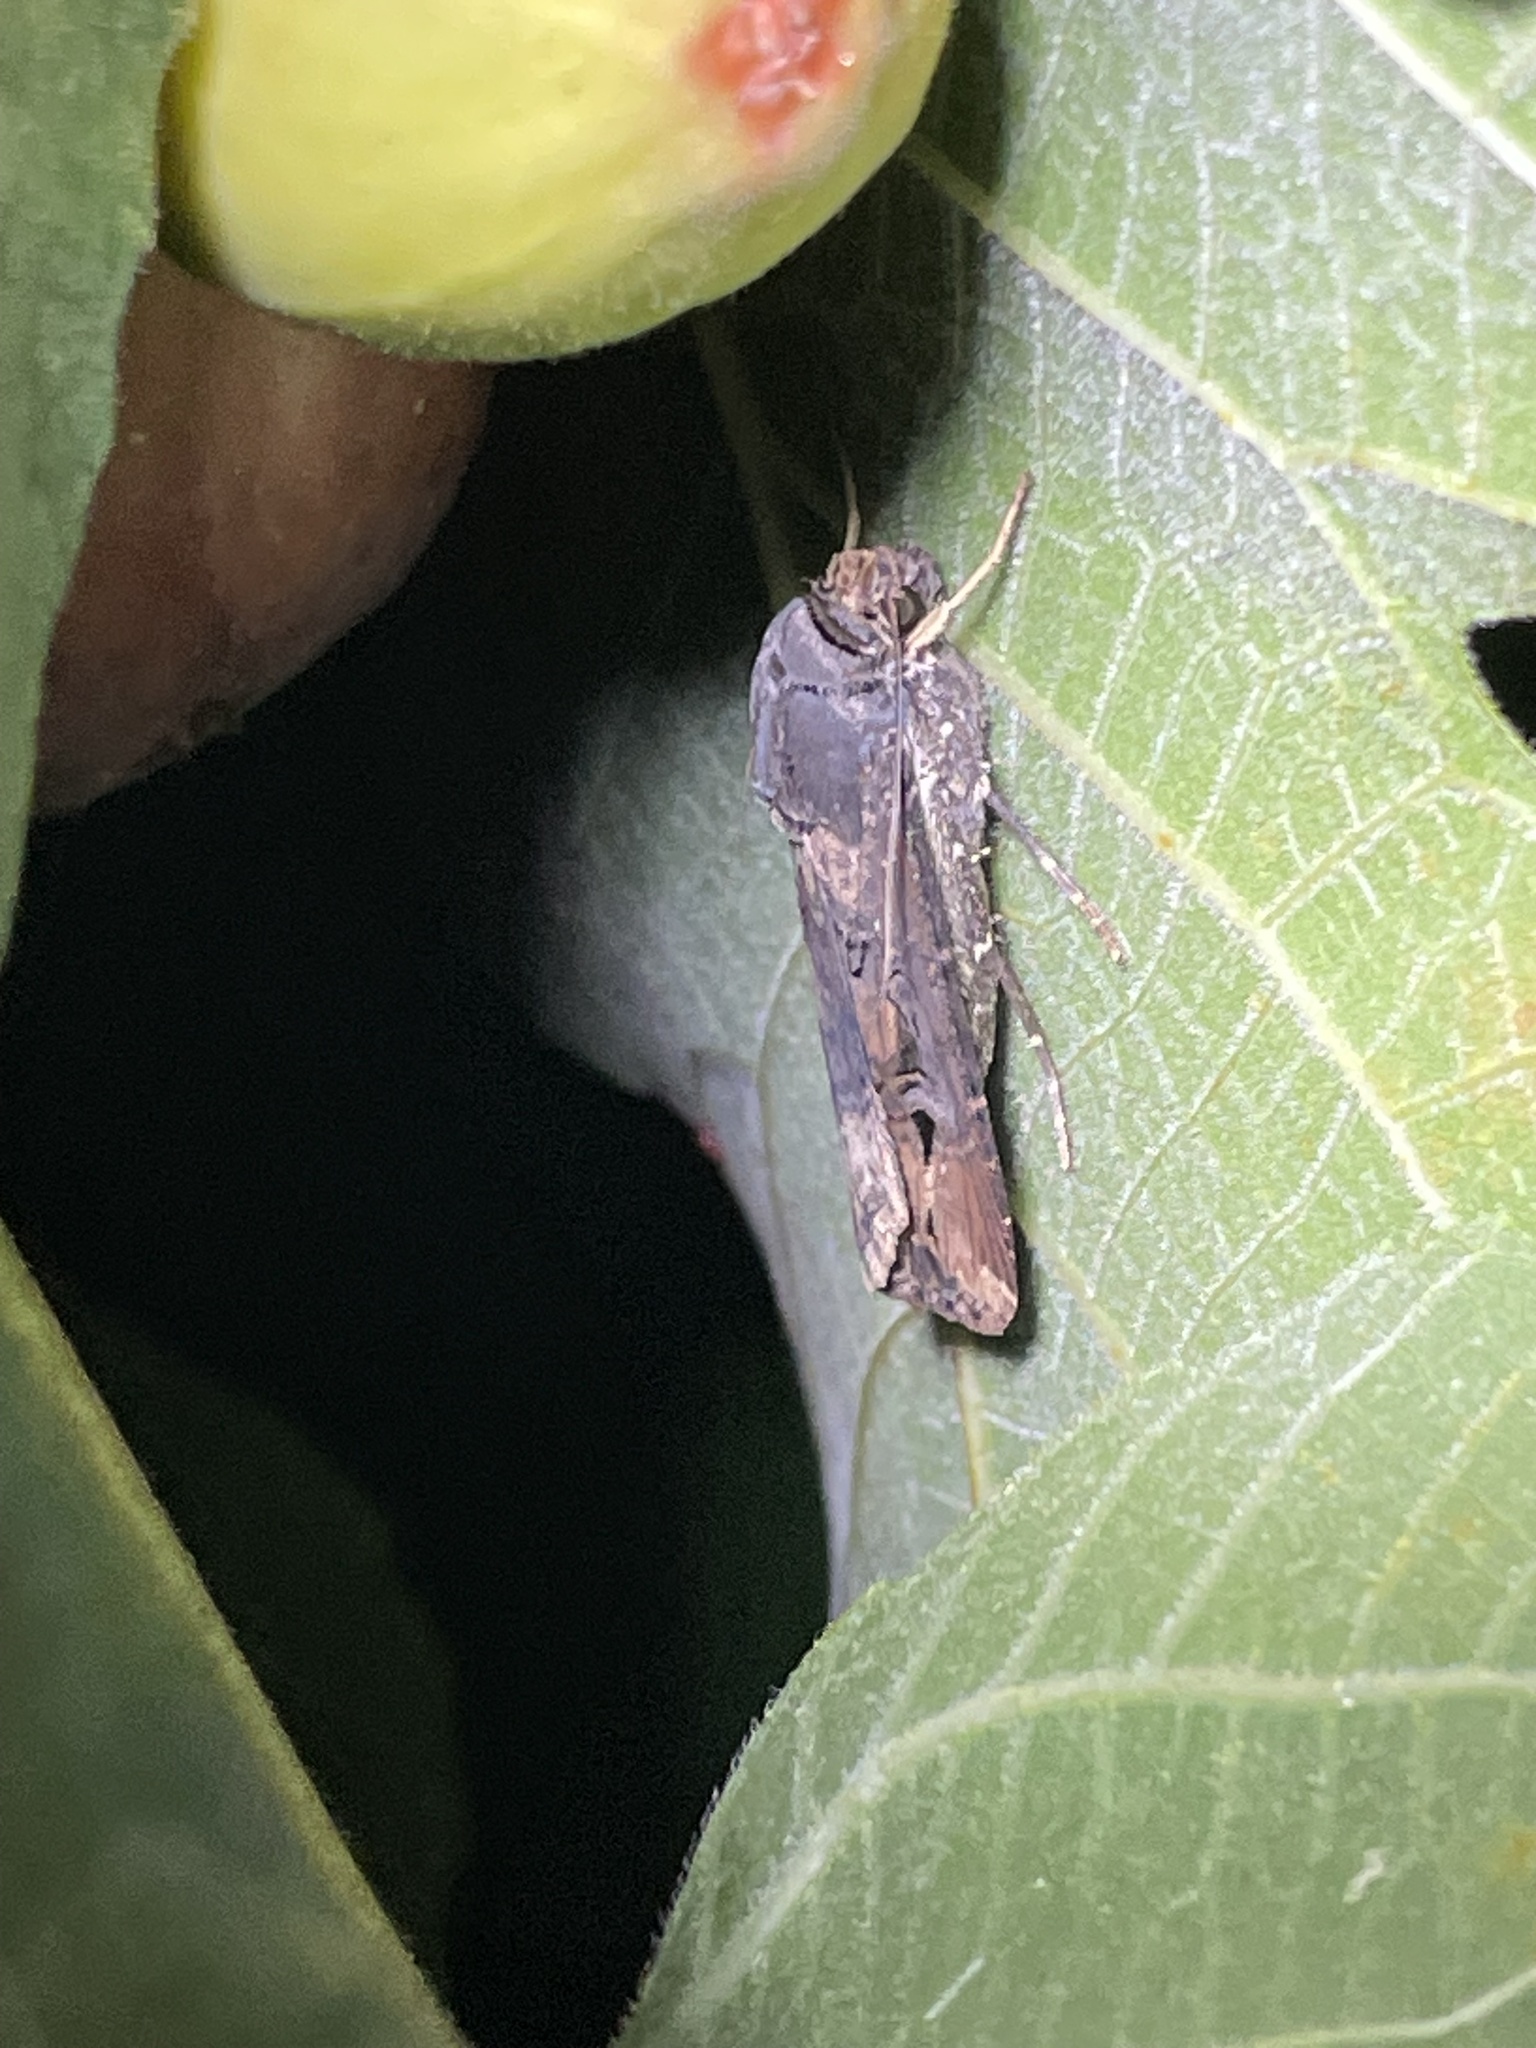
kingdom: Animalia
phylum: Arthropoda
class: Insecta
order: Lepidoptera
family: Noctuidae
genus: Agrotis
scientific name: Agrotis ipsilon
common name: Dark sword-grass
